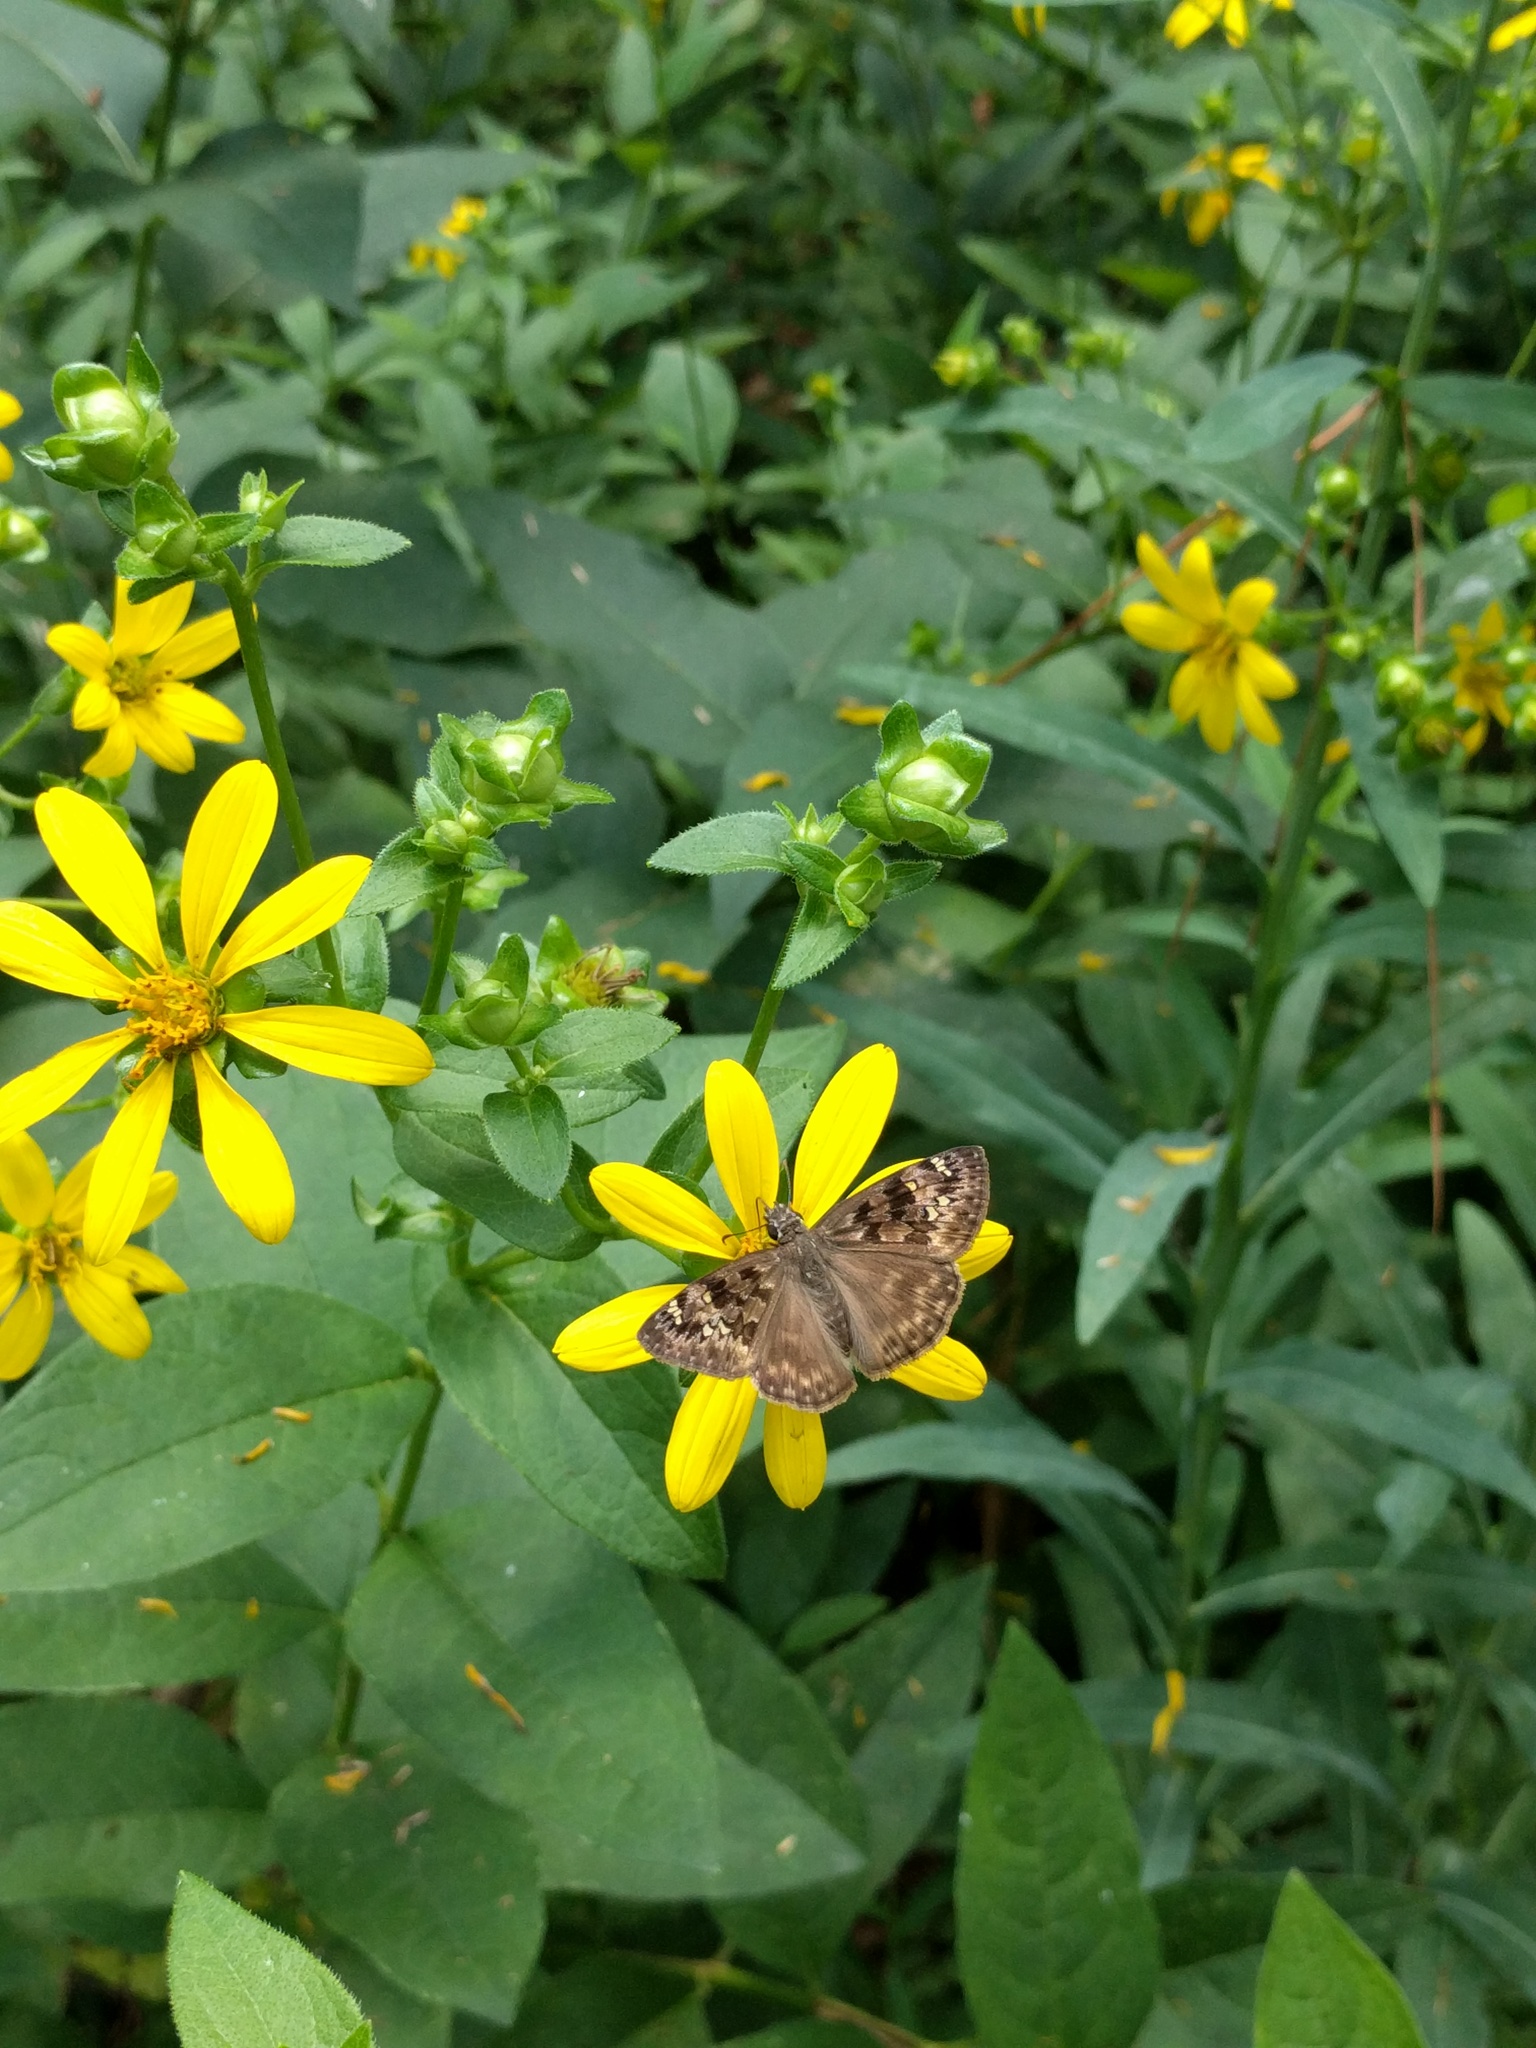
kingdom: Animalia
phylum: Arthropoda
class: Insecta
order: Lepidoptera
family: Hesperiidae
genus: Erynnis
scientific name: Erynnis horatius
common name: Horace's duskywing
